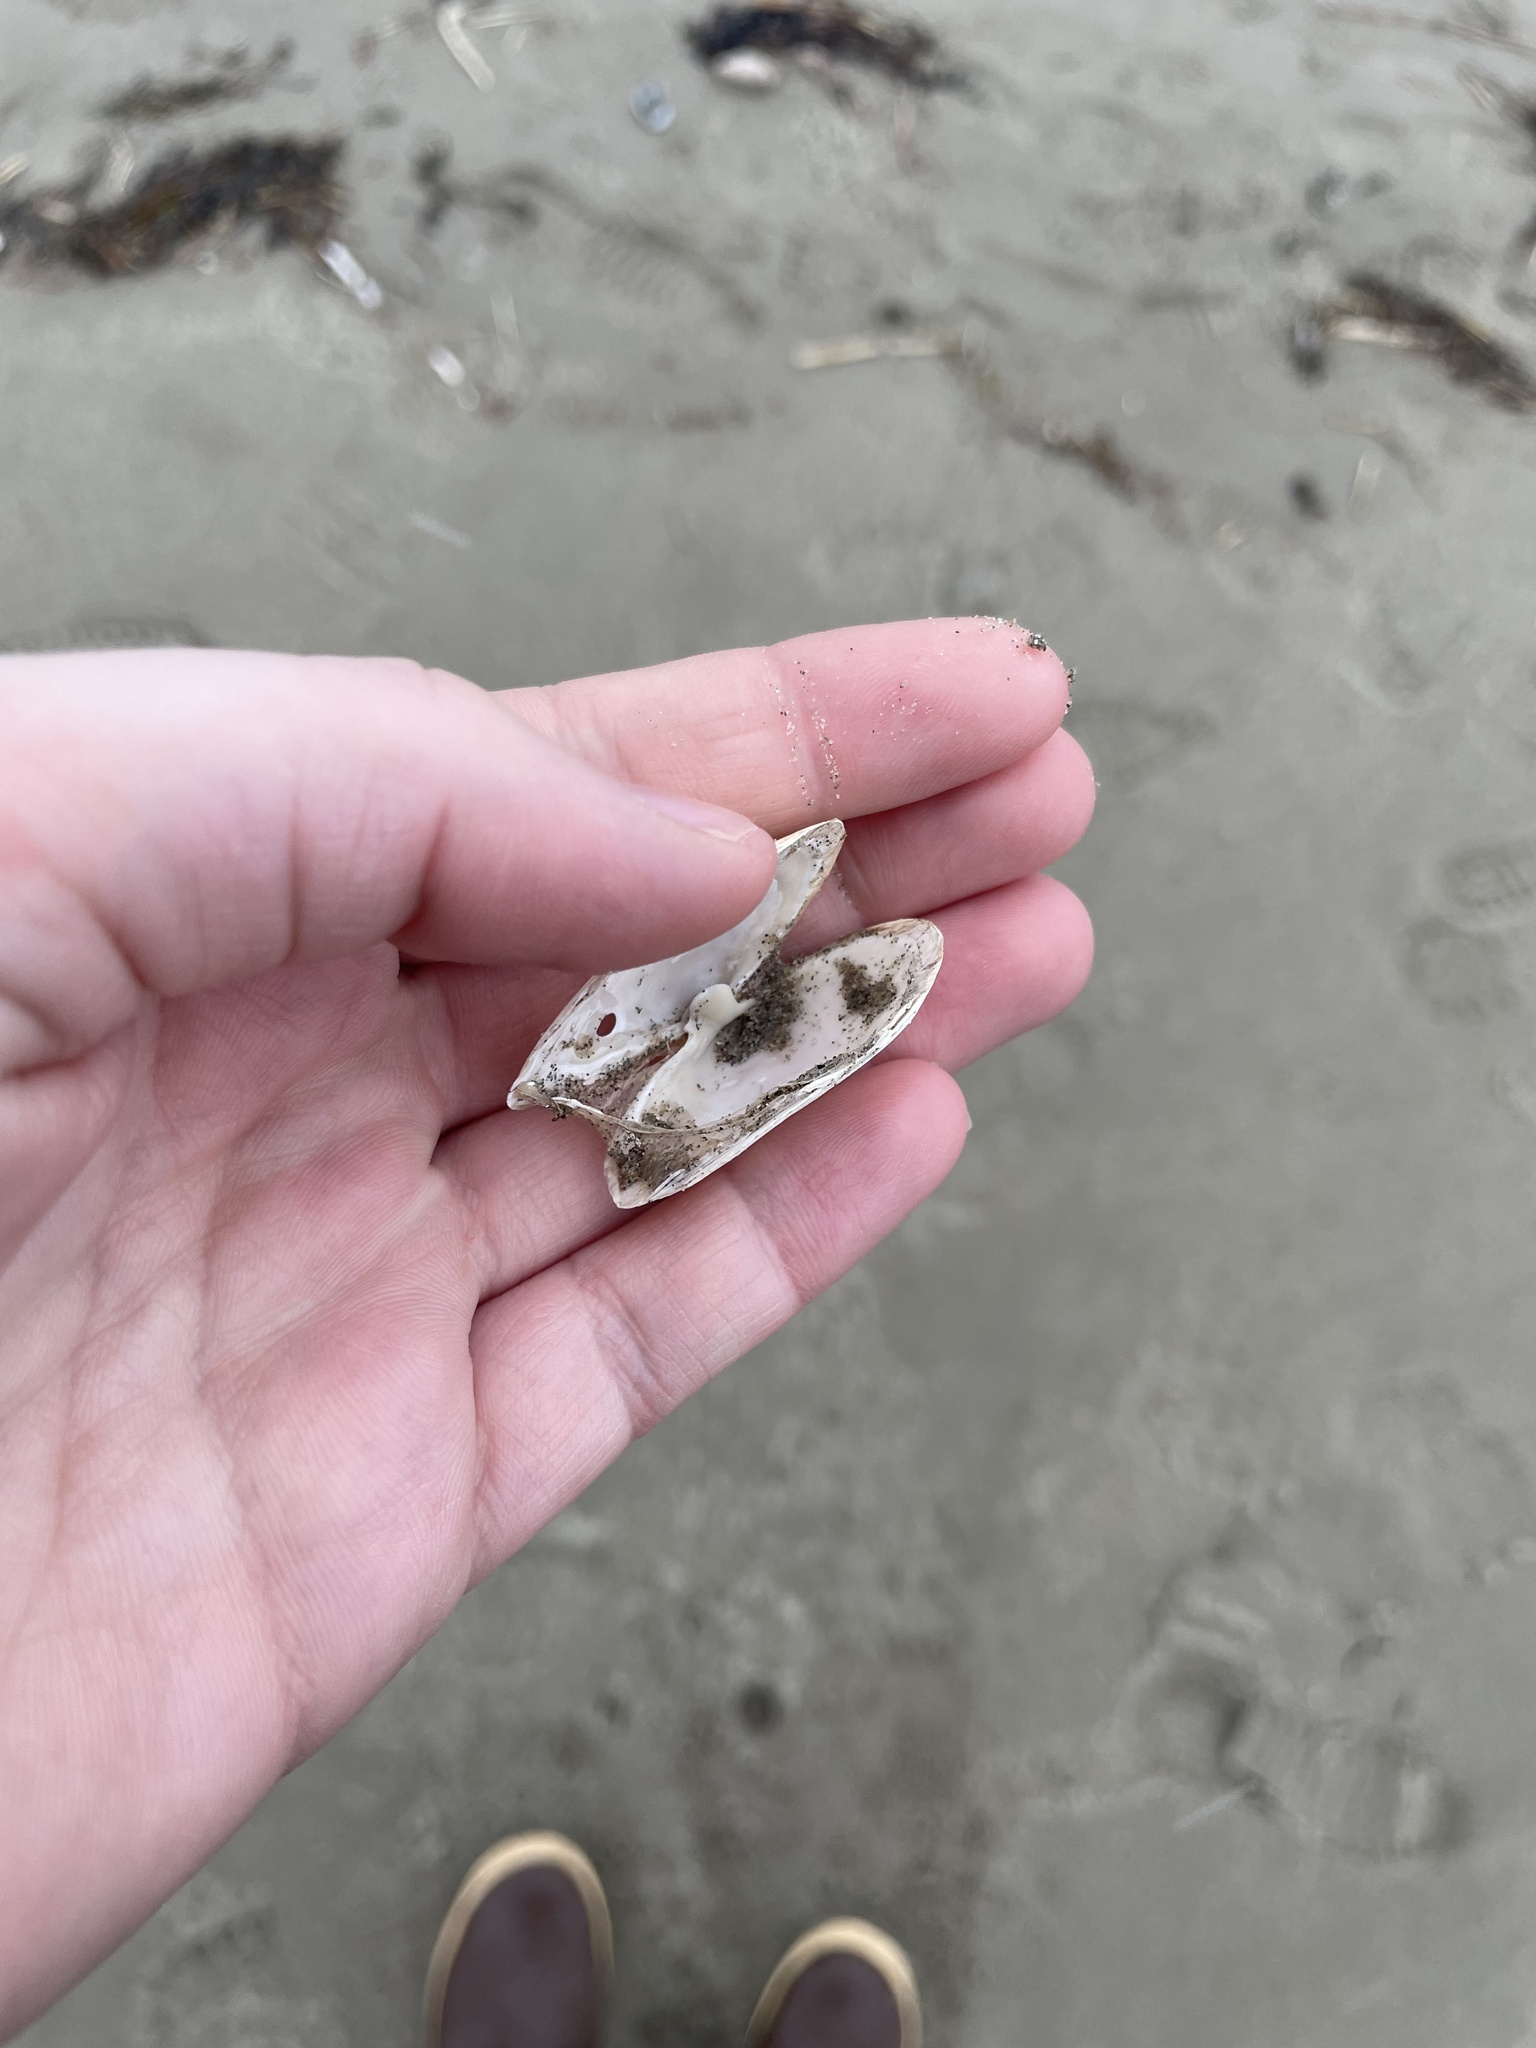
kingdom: Animalia
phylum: Mollusca
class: Bivalvia
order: Myida
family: Myidae
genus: Mya
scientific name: Mya arenaria
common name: Soft-shelled clam
